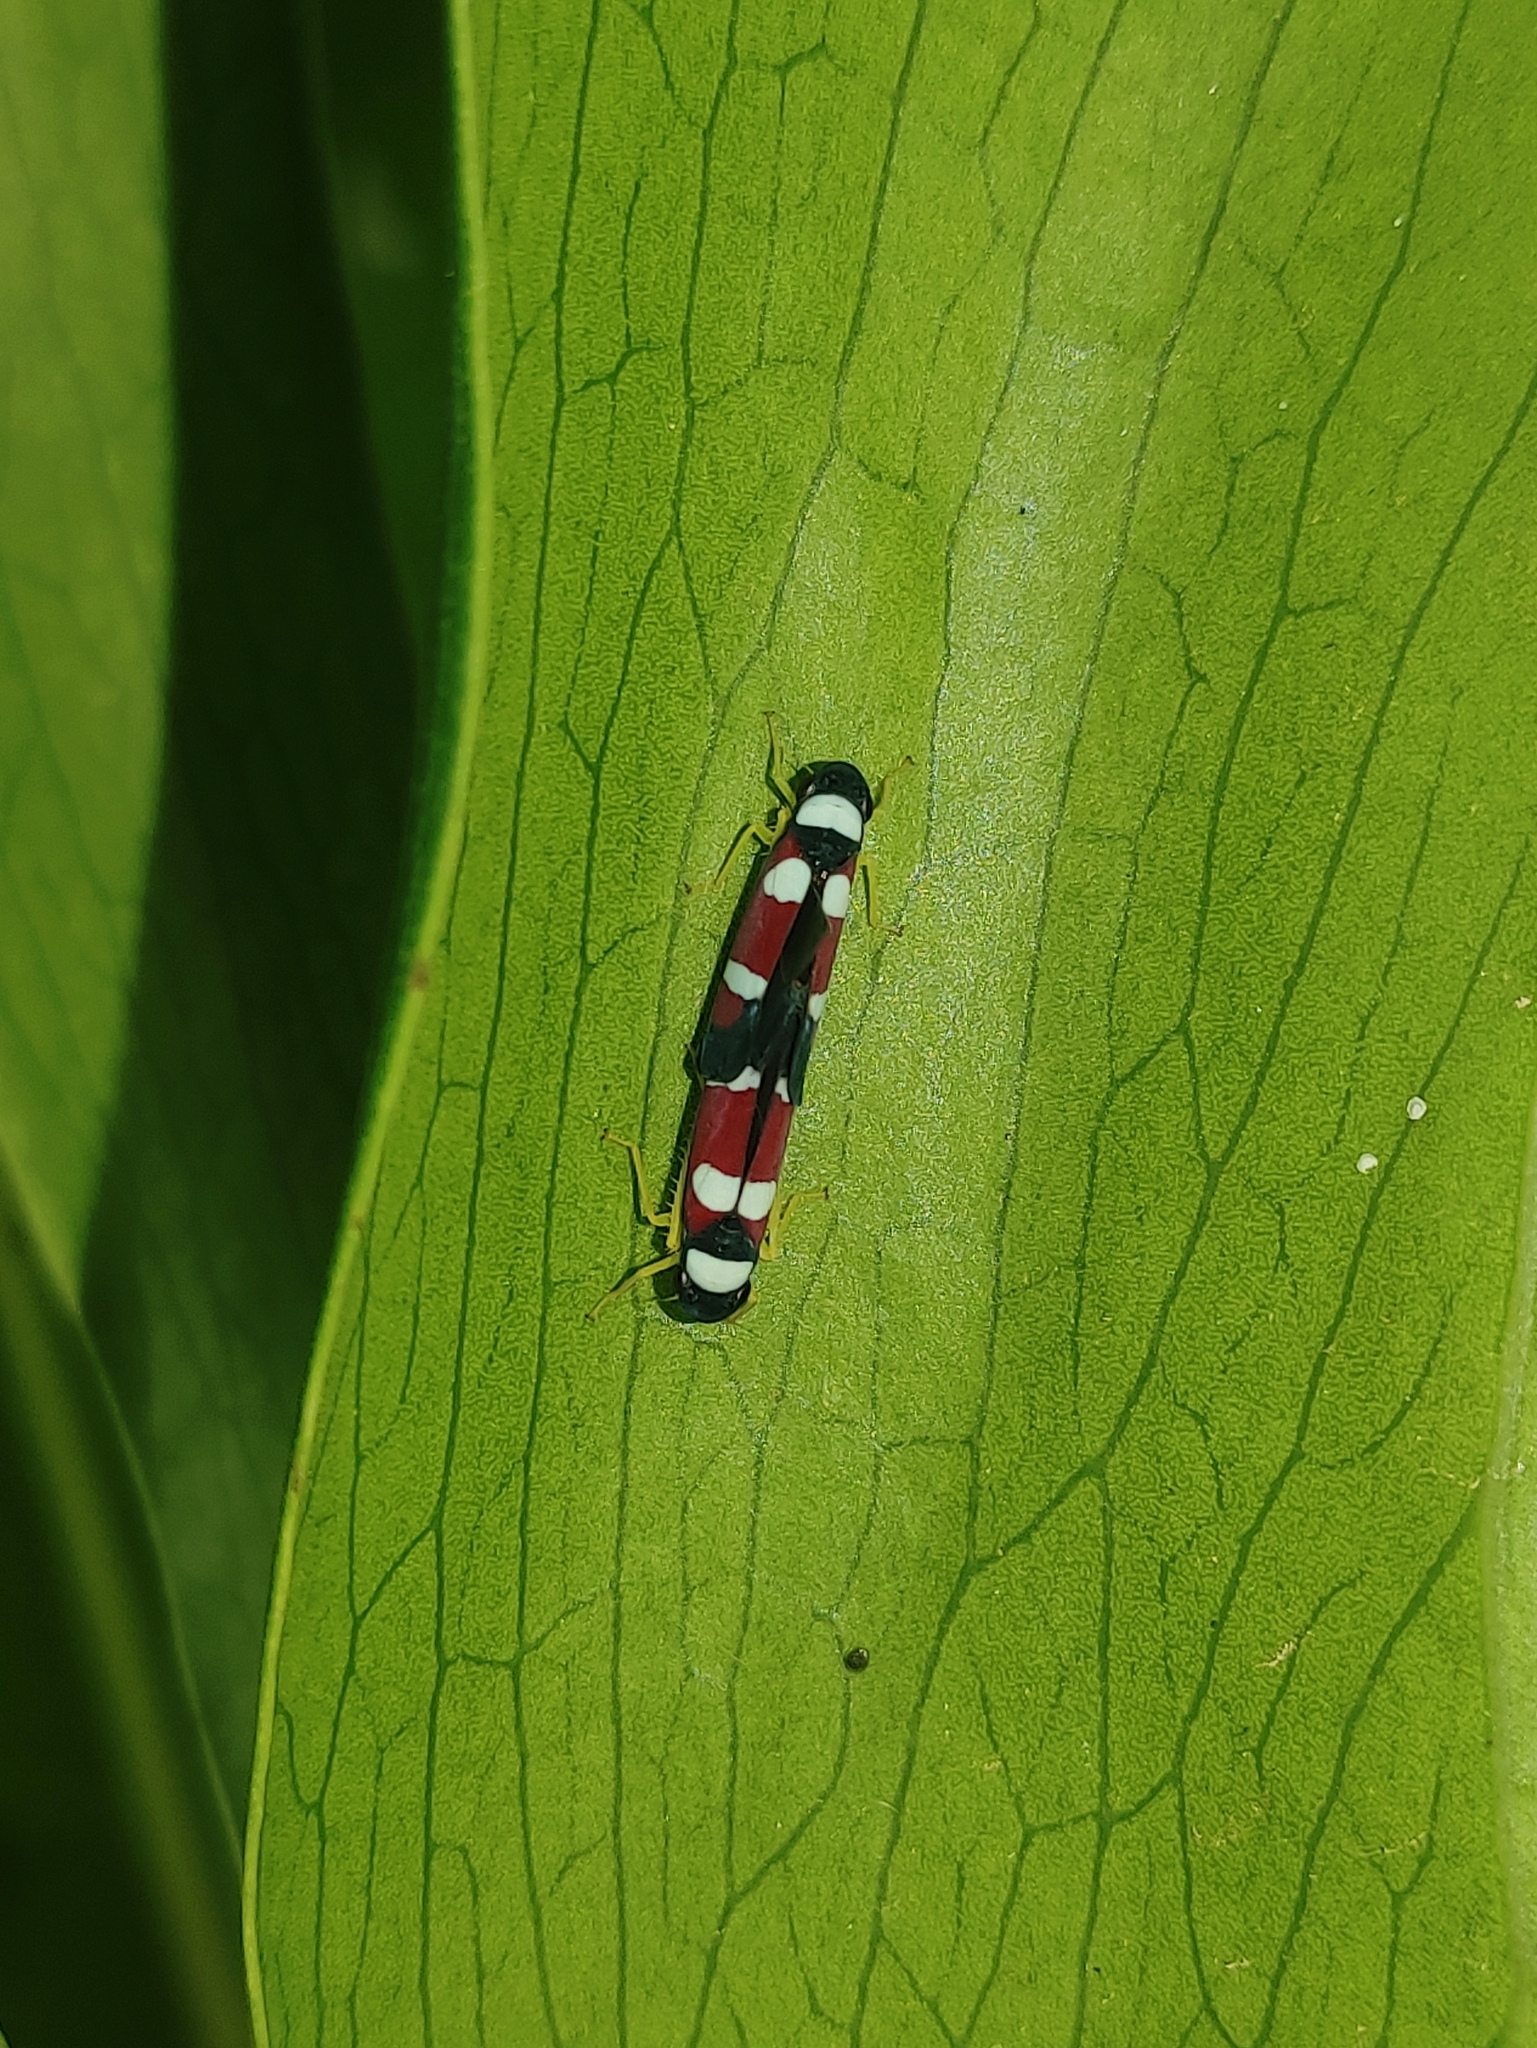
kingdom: Animalia
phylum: Arthropoda
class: Insecta
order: Hemiptera
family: Cicadellidae
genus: Erythrogonia
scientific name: Erythrogonia phoenicea
